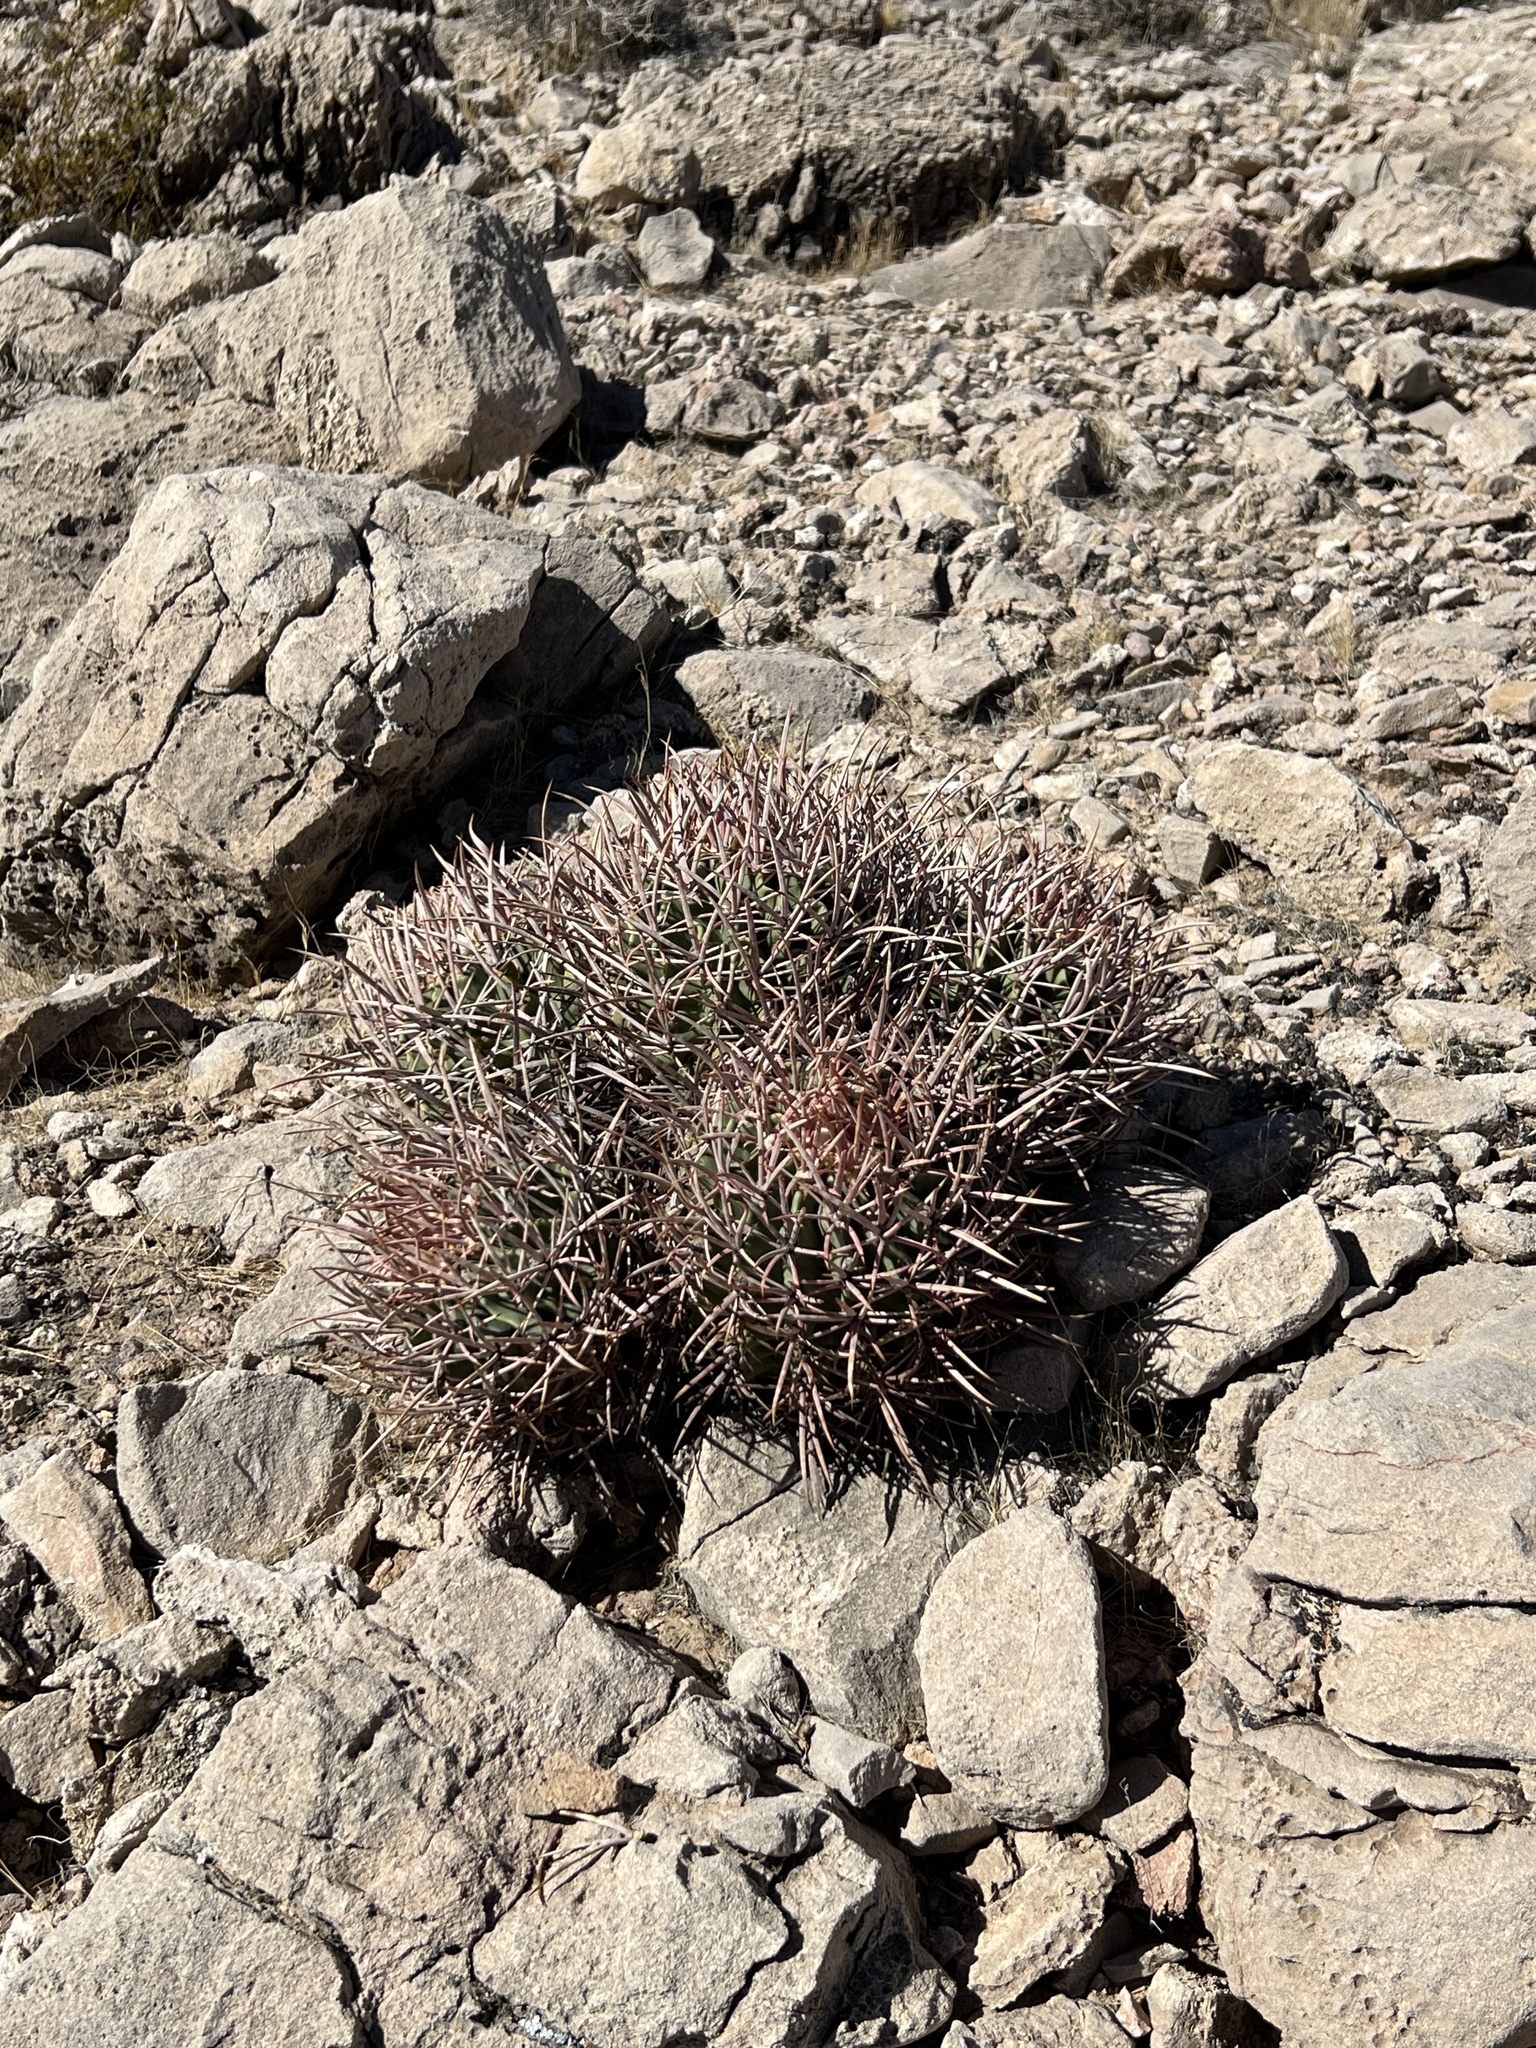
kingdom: Plantae
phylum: Tracheophyta
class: Magnoliopsida
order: Caryophyllales
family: Cactaceae
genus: Echinocactus
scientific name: Echinocactus polycephalus
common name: Cottontop cactus
